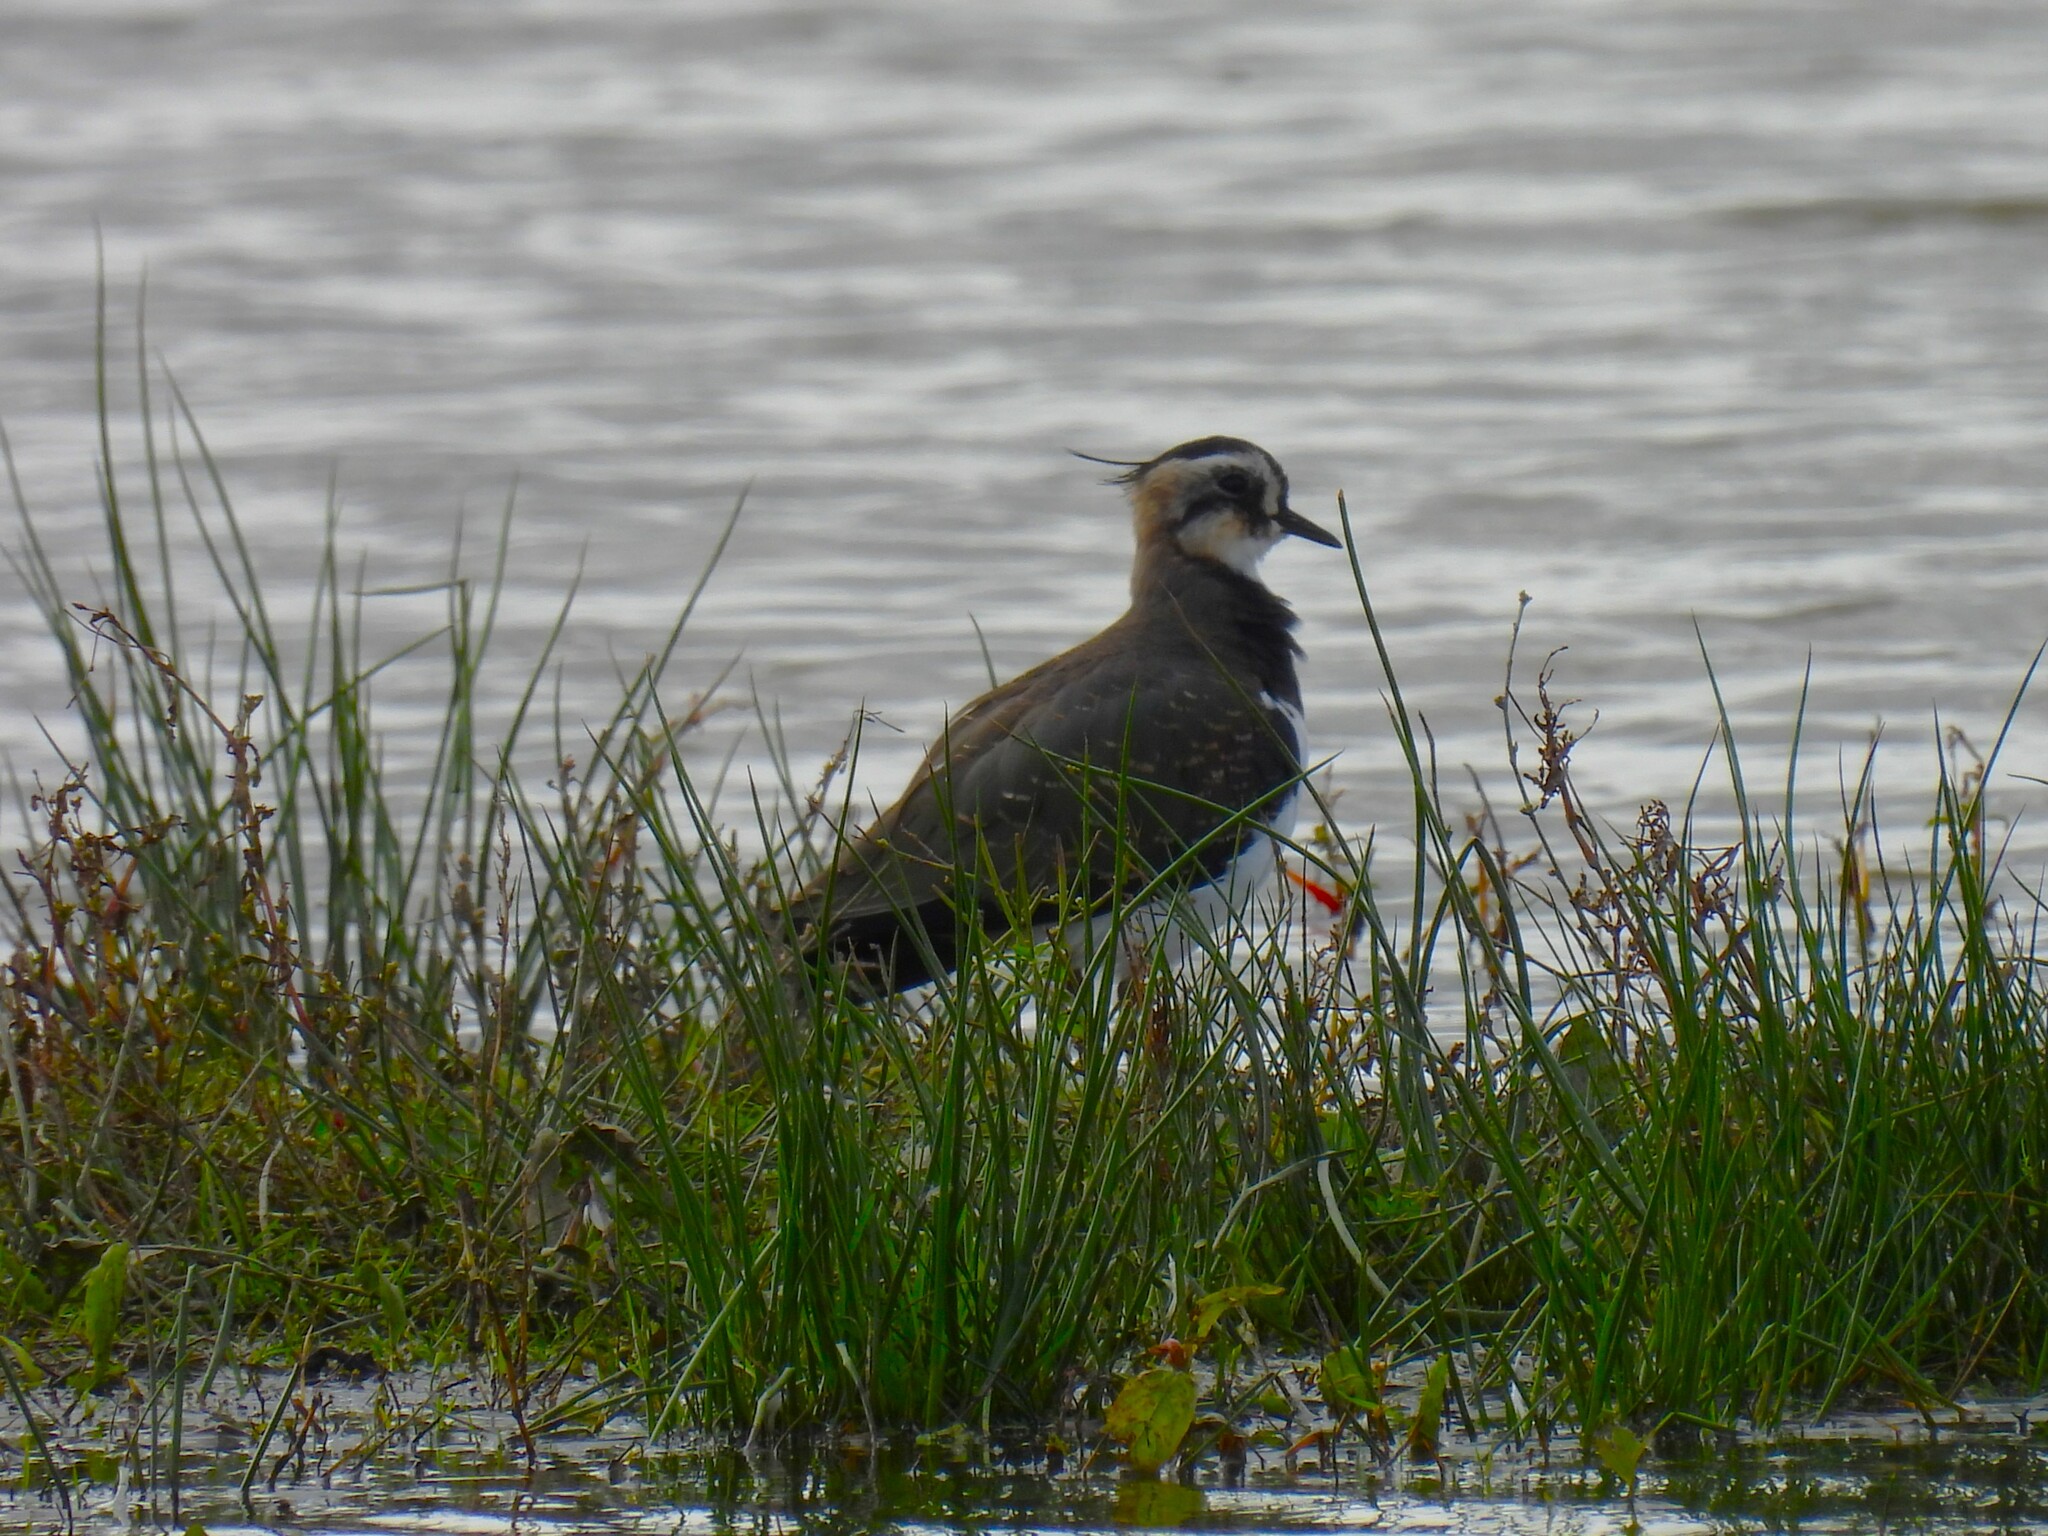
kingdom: Animalia
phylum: Chordata
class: Aves
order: Charadriiformes
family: Charadriidae
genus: Vanellus
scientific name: Vanellus vanellus
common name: Northern lapwing
